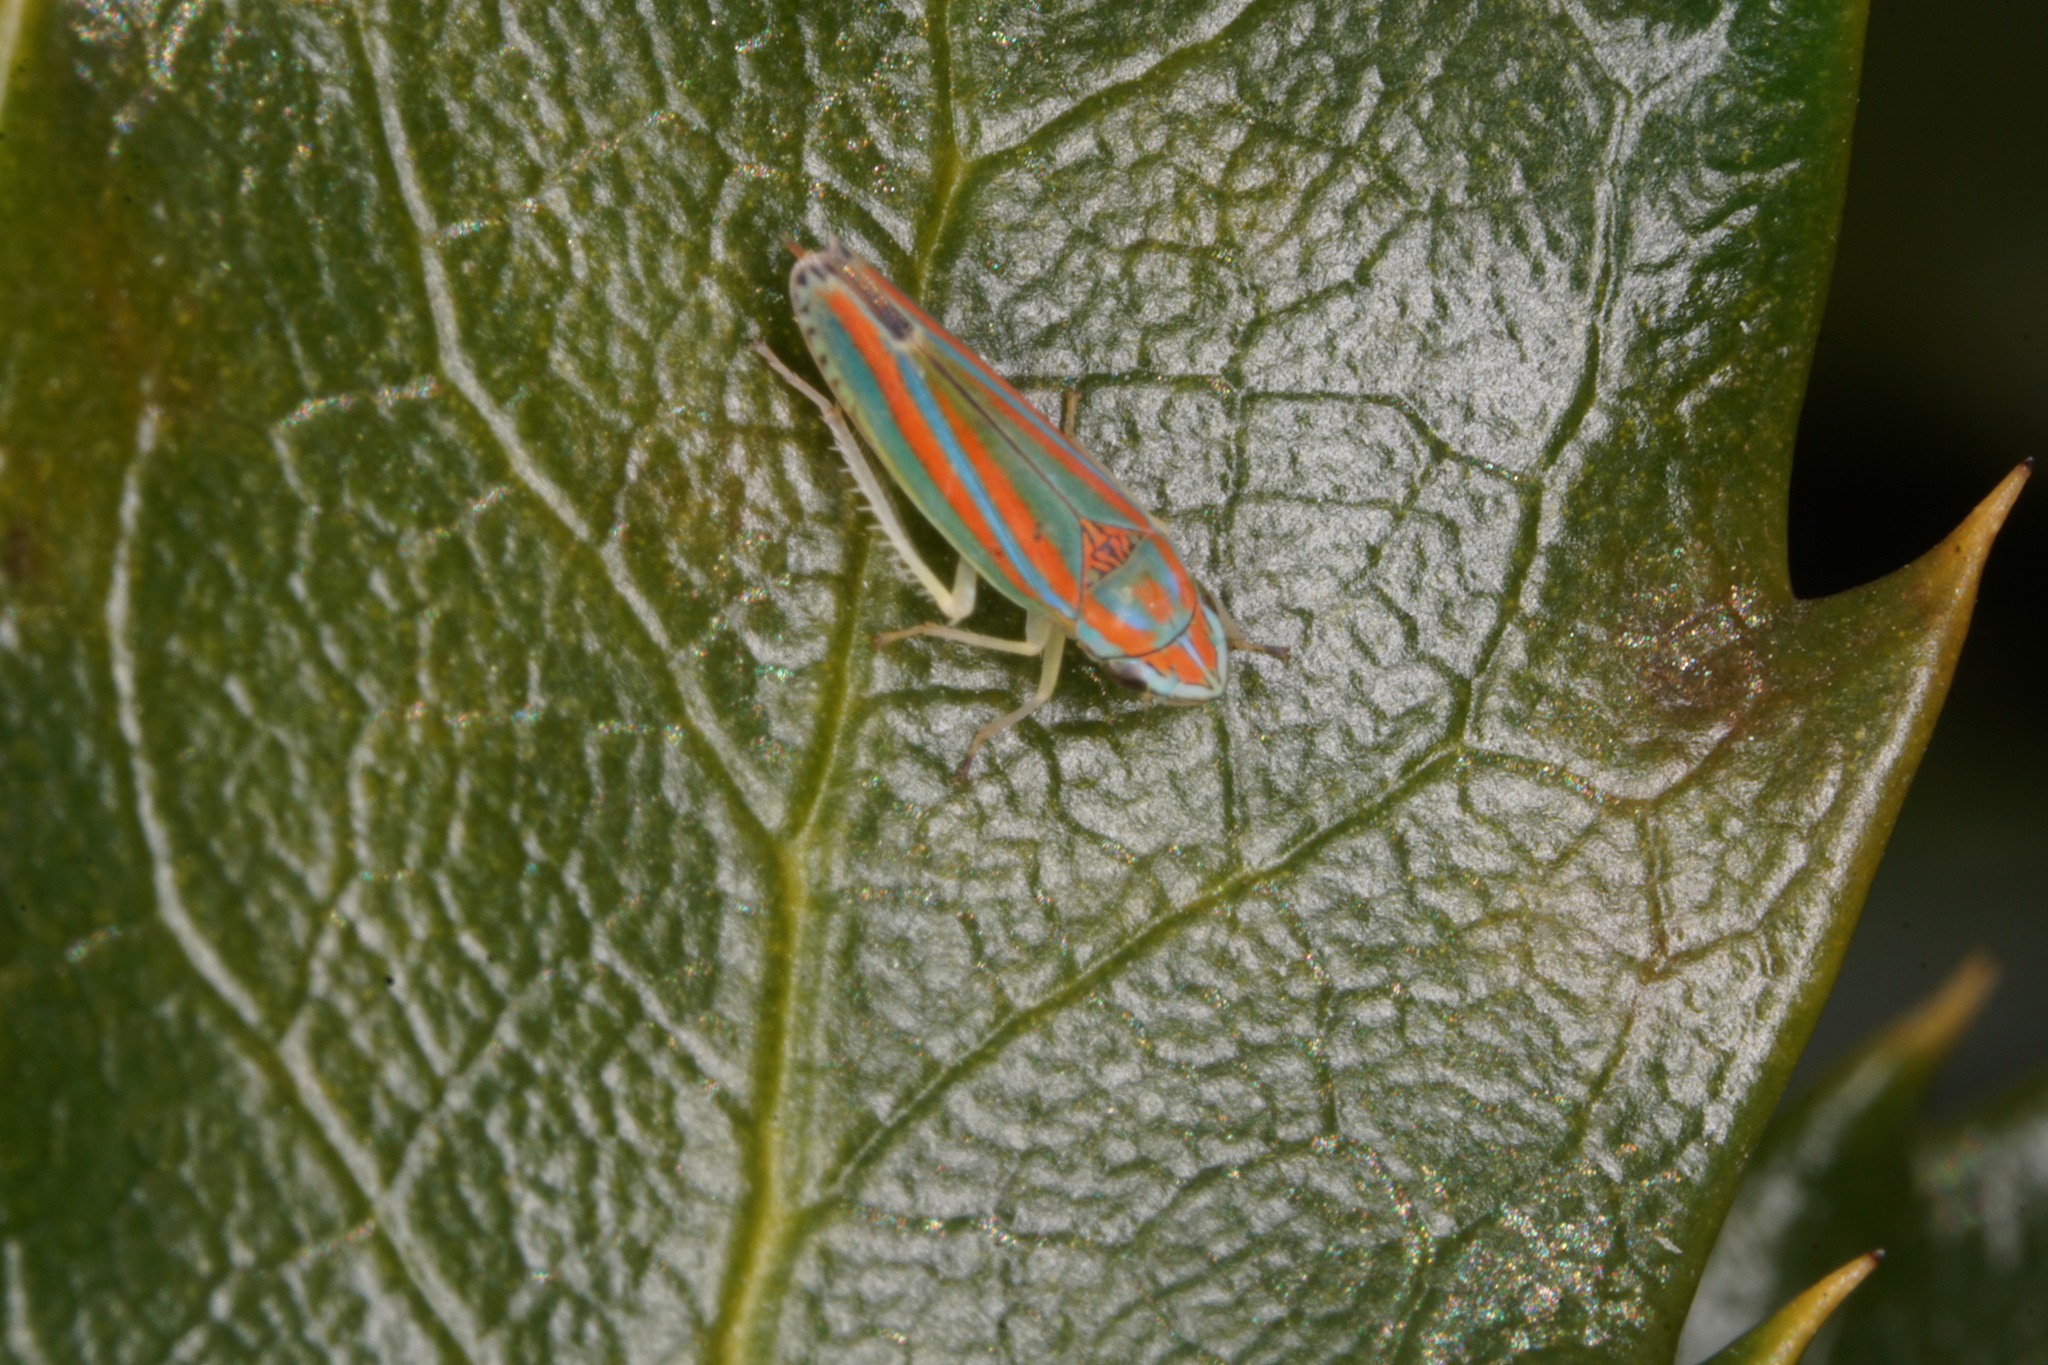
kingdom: Animalia
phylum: Arthropoda
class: Insecta
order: Hemiptera
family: Cicadellidae
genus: Graphocephala
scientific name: Graphocephala versuta
